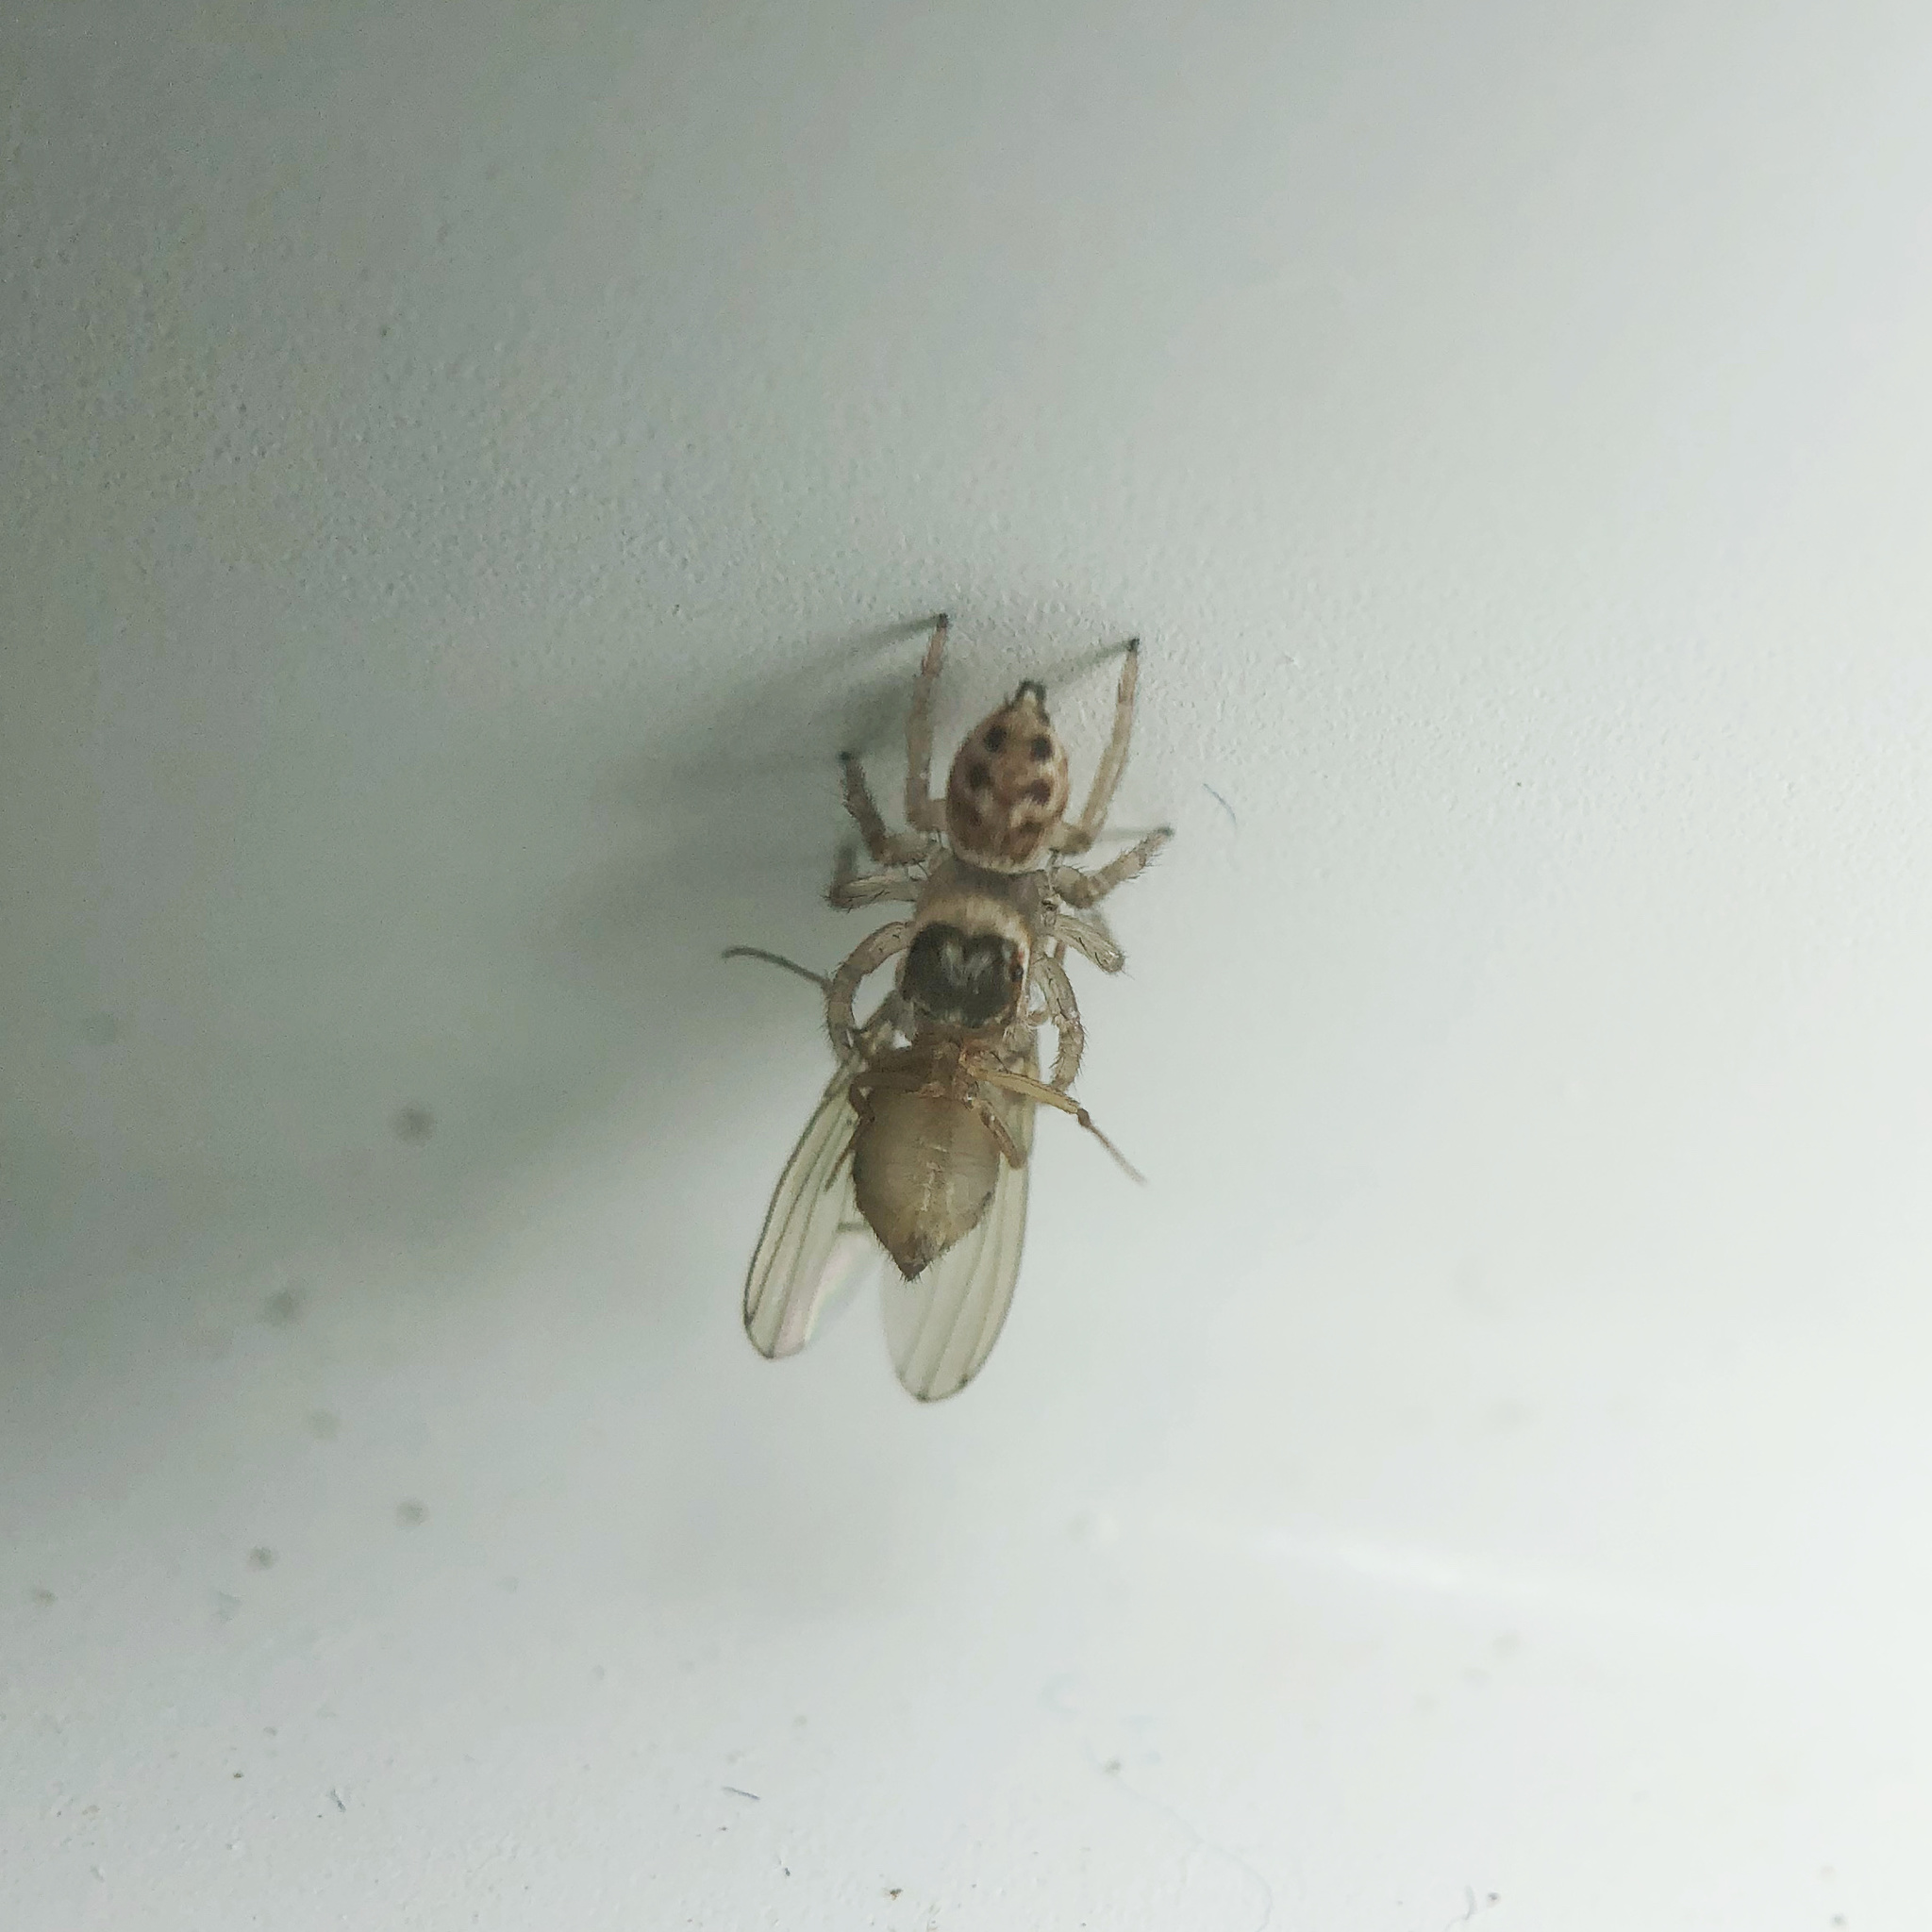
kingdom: Animalia
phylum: Arthropoda
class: Arachnida
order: Araneae
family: Salticidae
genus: Maratus
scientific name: Maratus griseus
